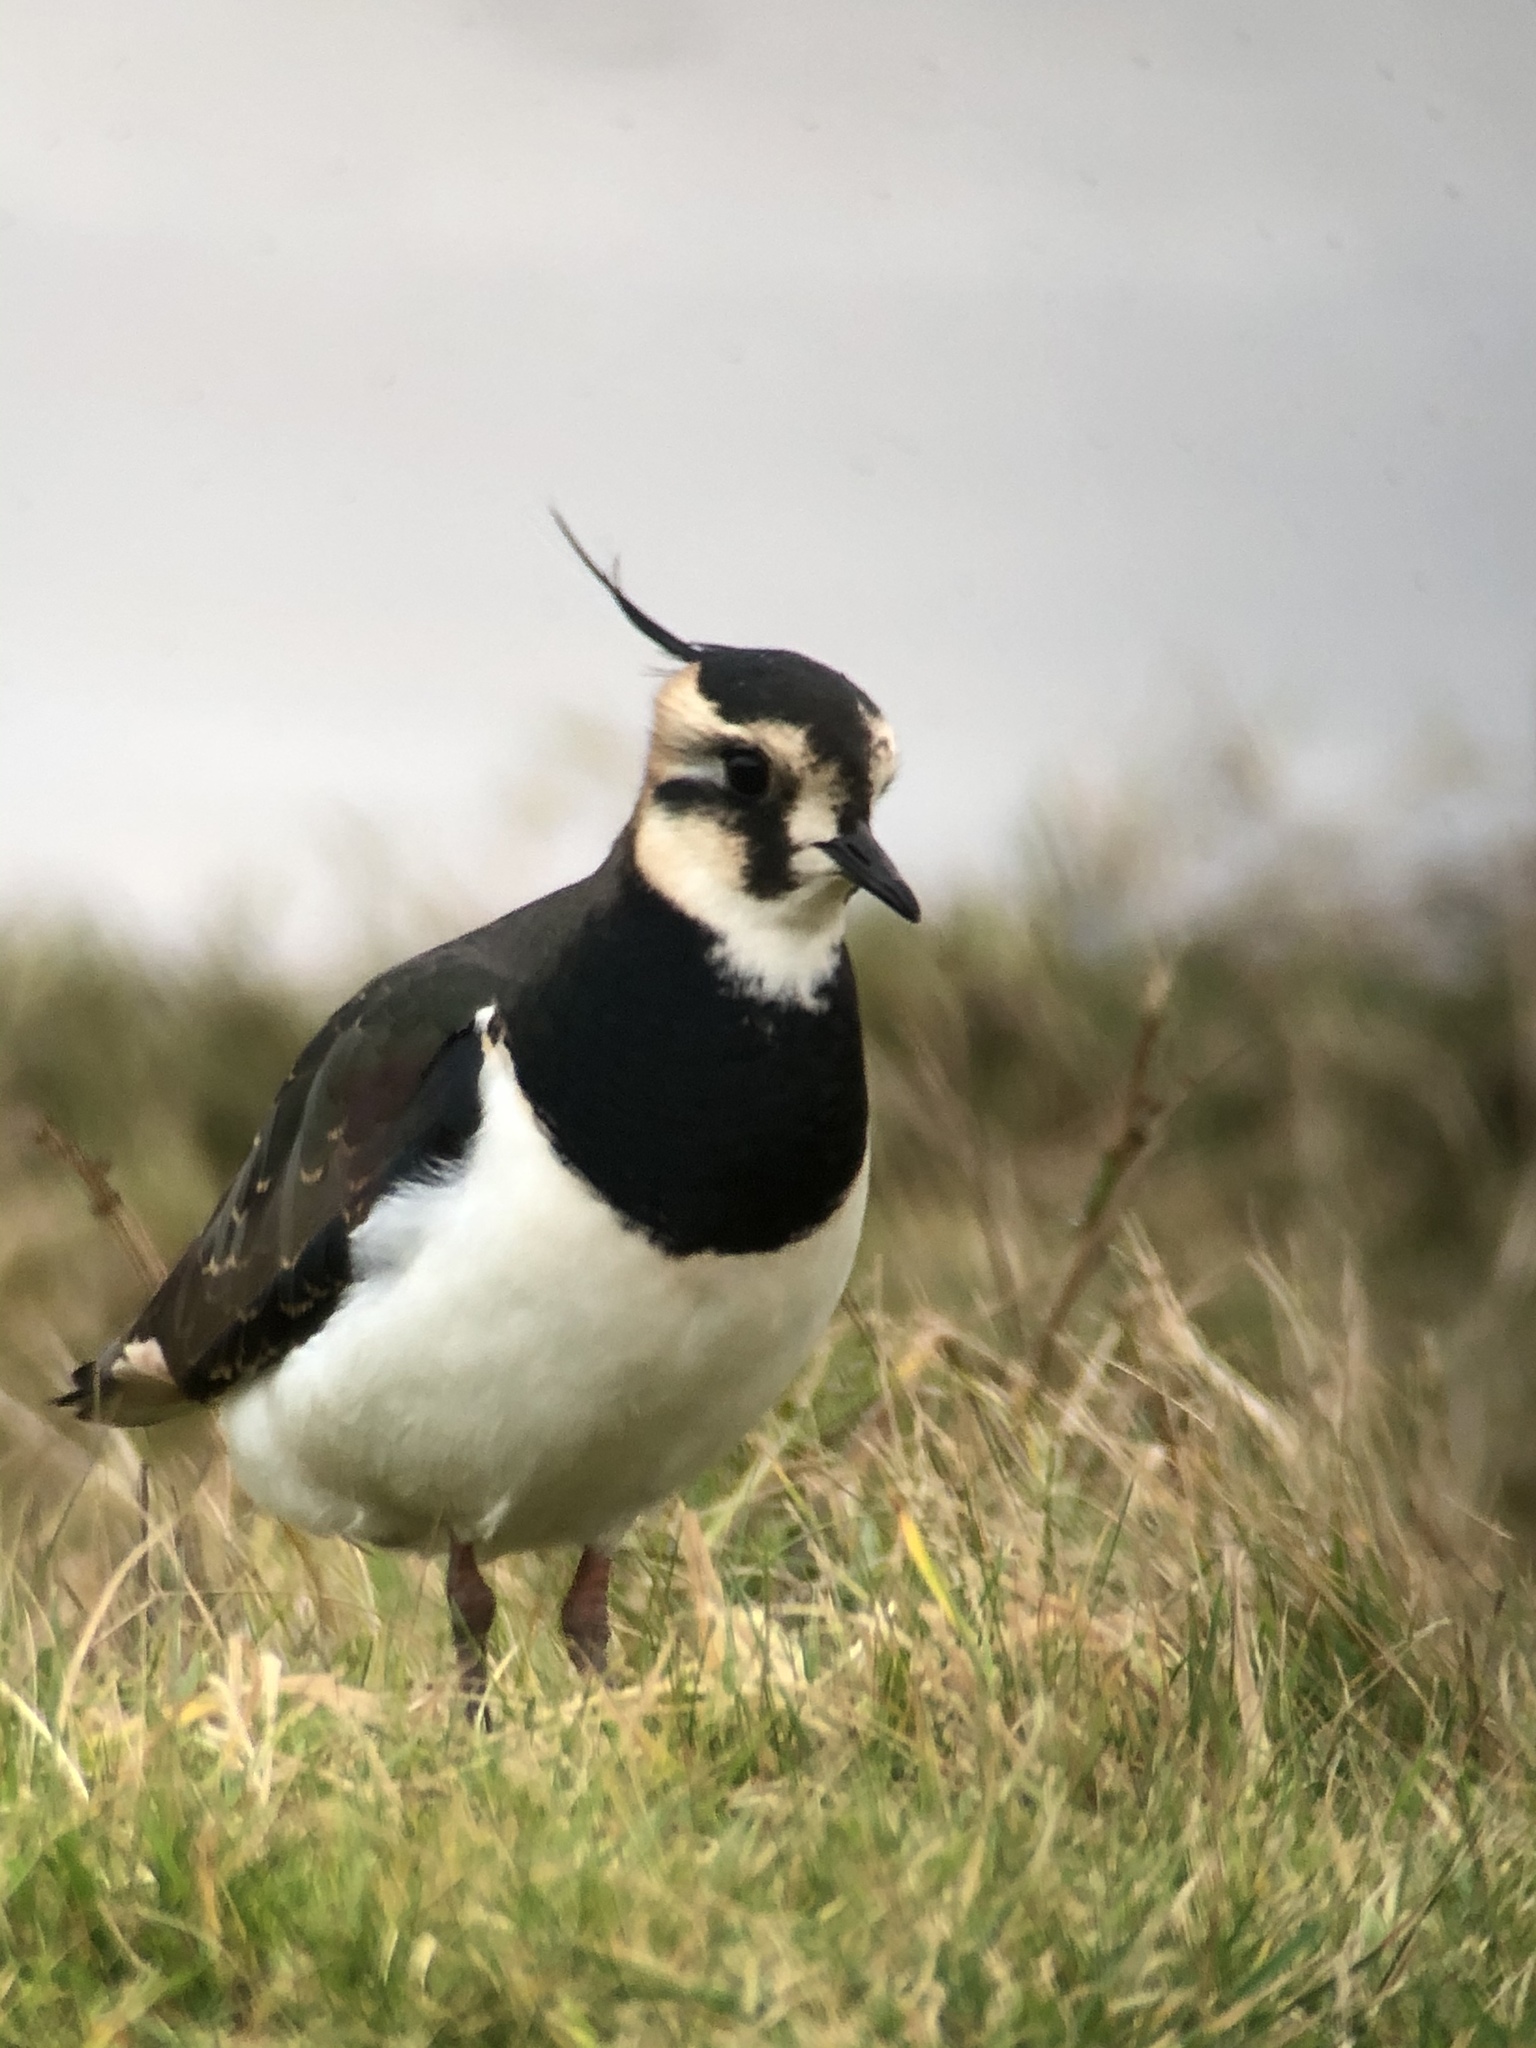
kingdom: Animalia
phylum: Chordata
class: Aves
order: Charadriiformes
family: Charadriidae
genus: Vanellus
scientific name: Vanellus vanellus
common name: Northern lapwing
